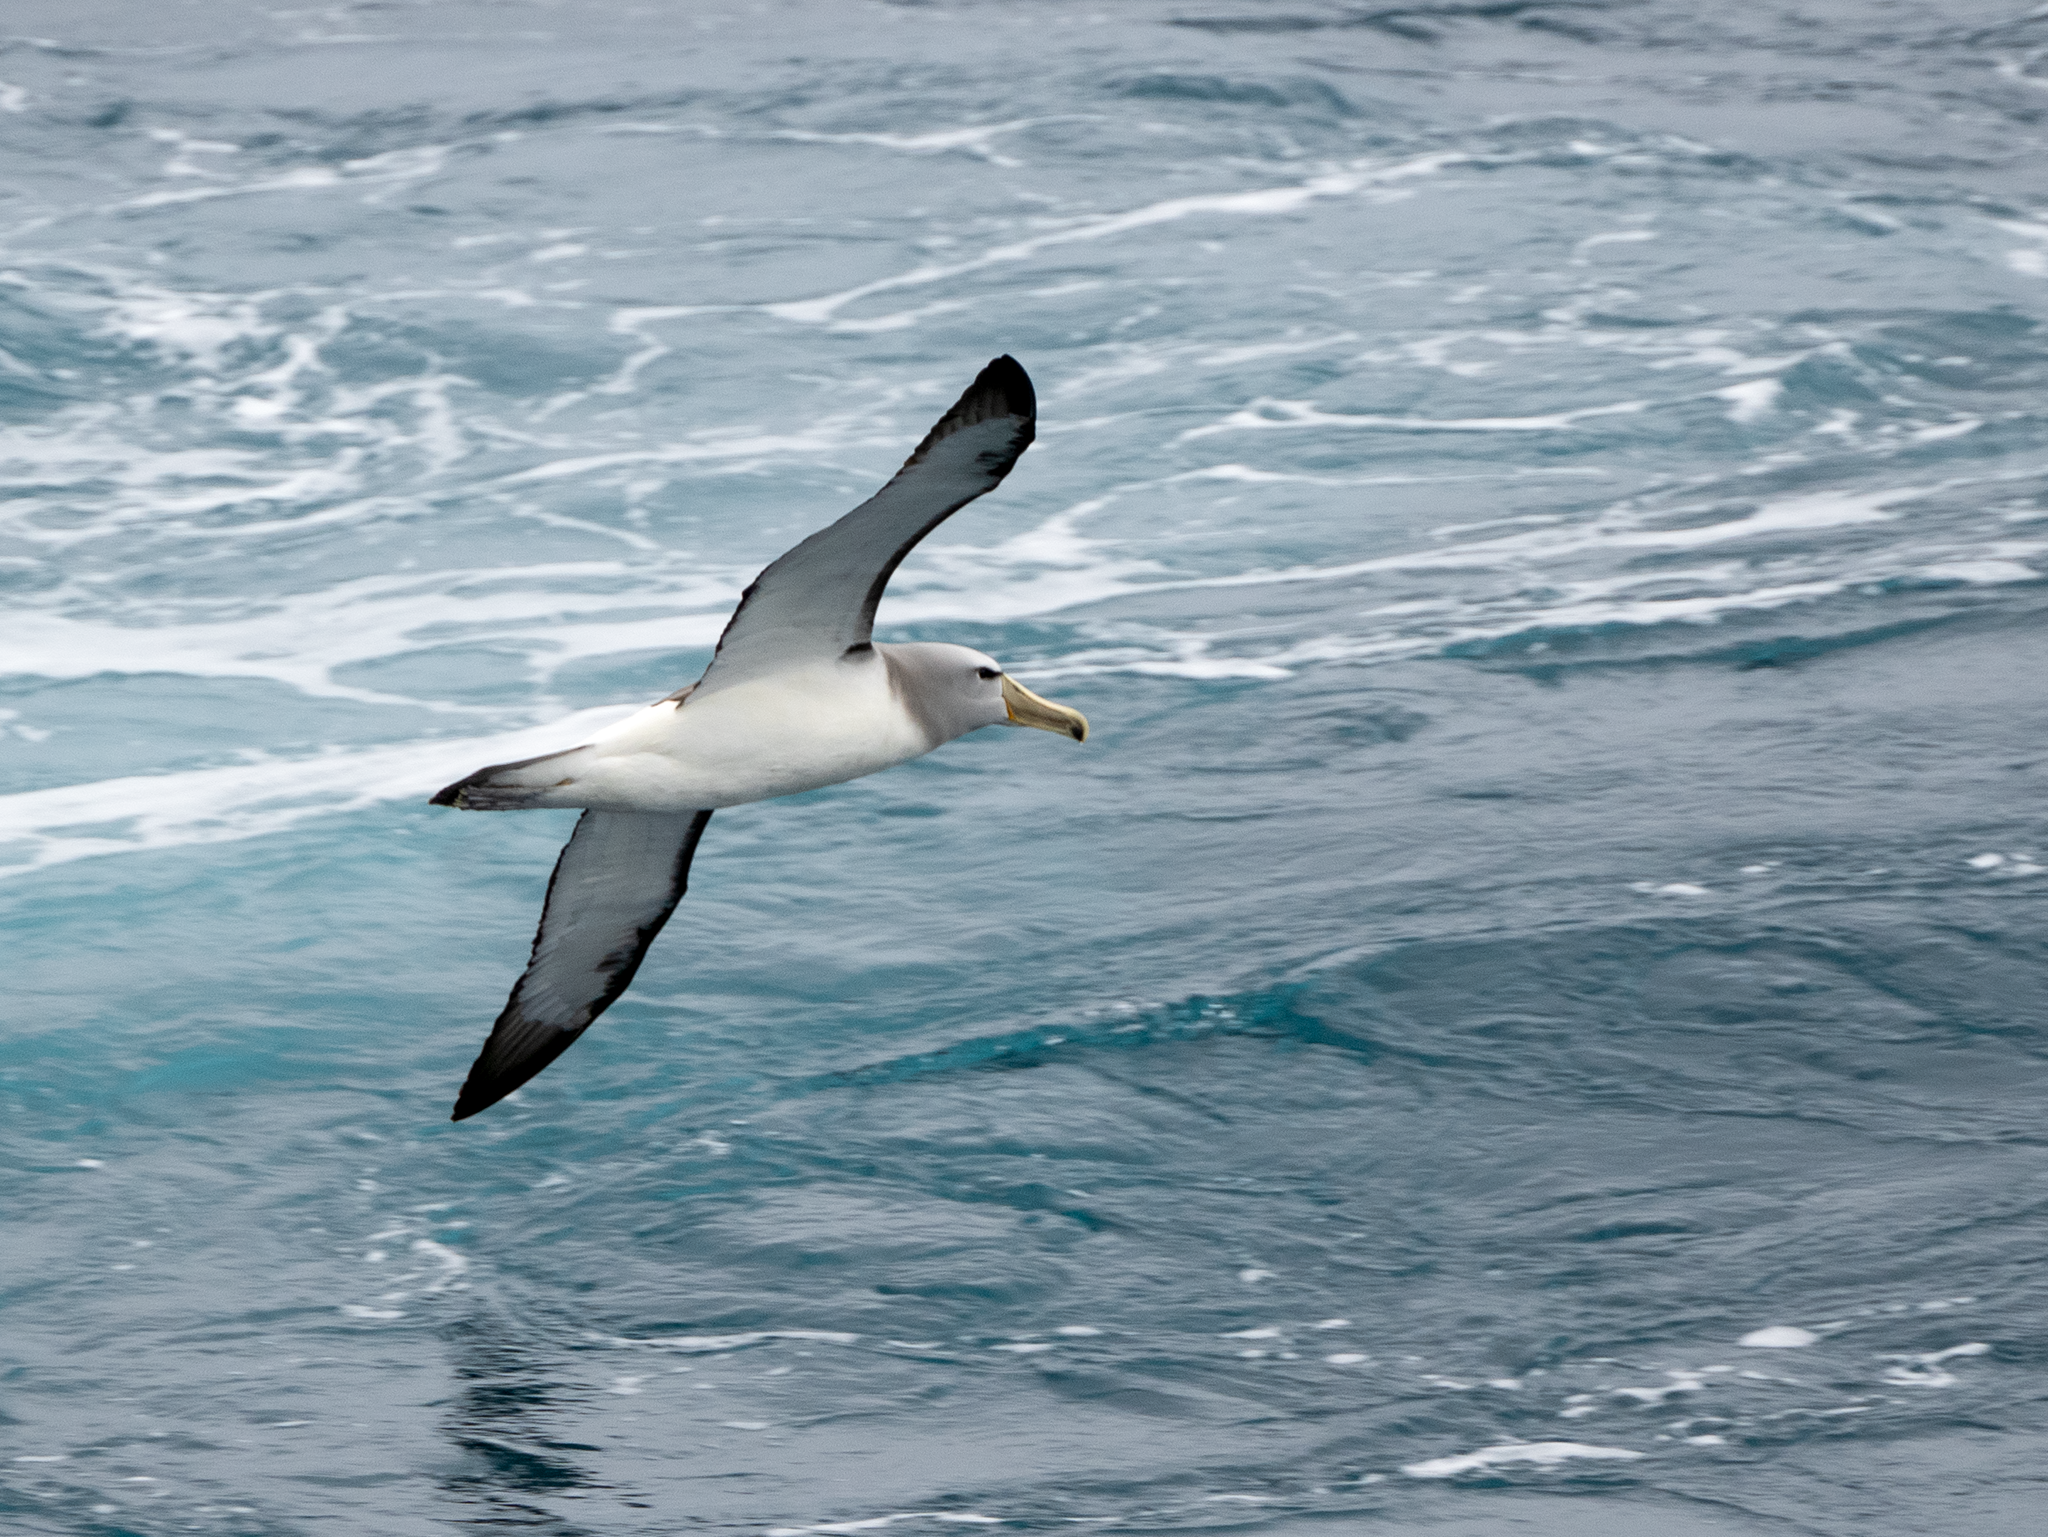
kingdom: Animalia
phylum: Chordata
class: Aves
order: Procellariiformes
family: Diomedeidae
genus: Thalassarche
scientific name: Thalassarche salvini
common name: Salvin's albatross
